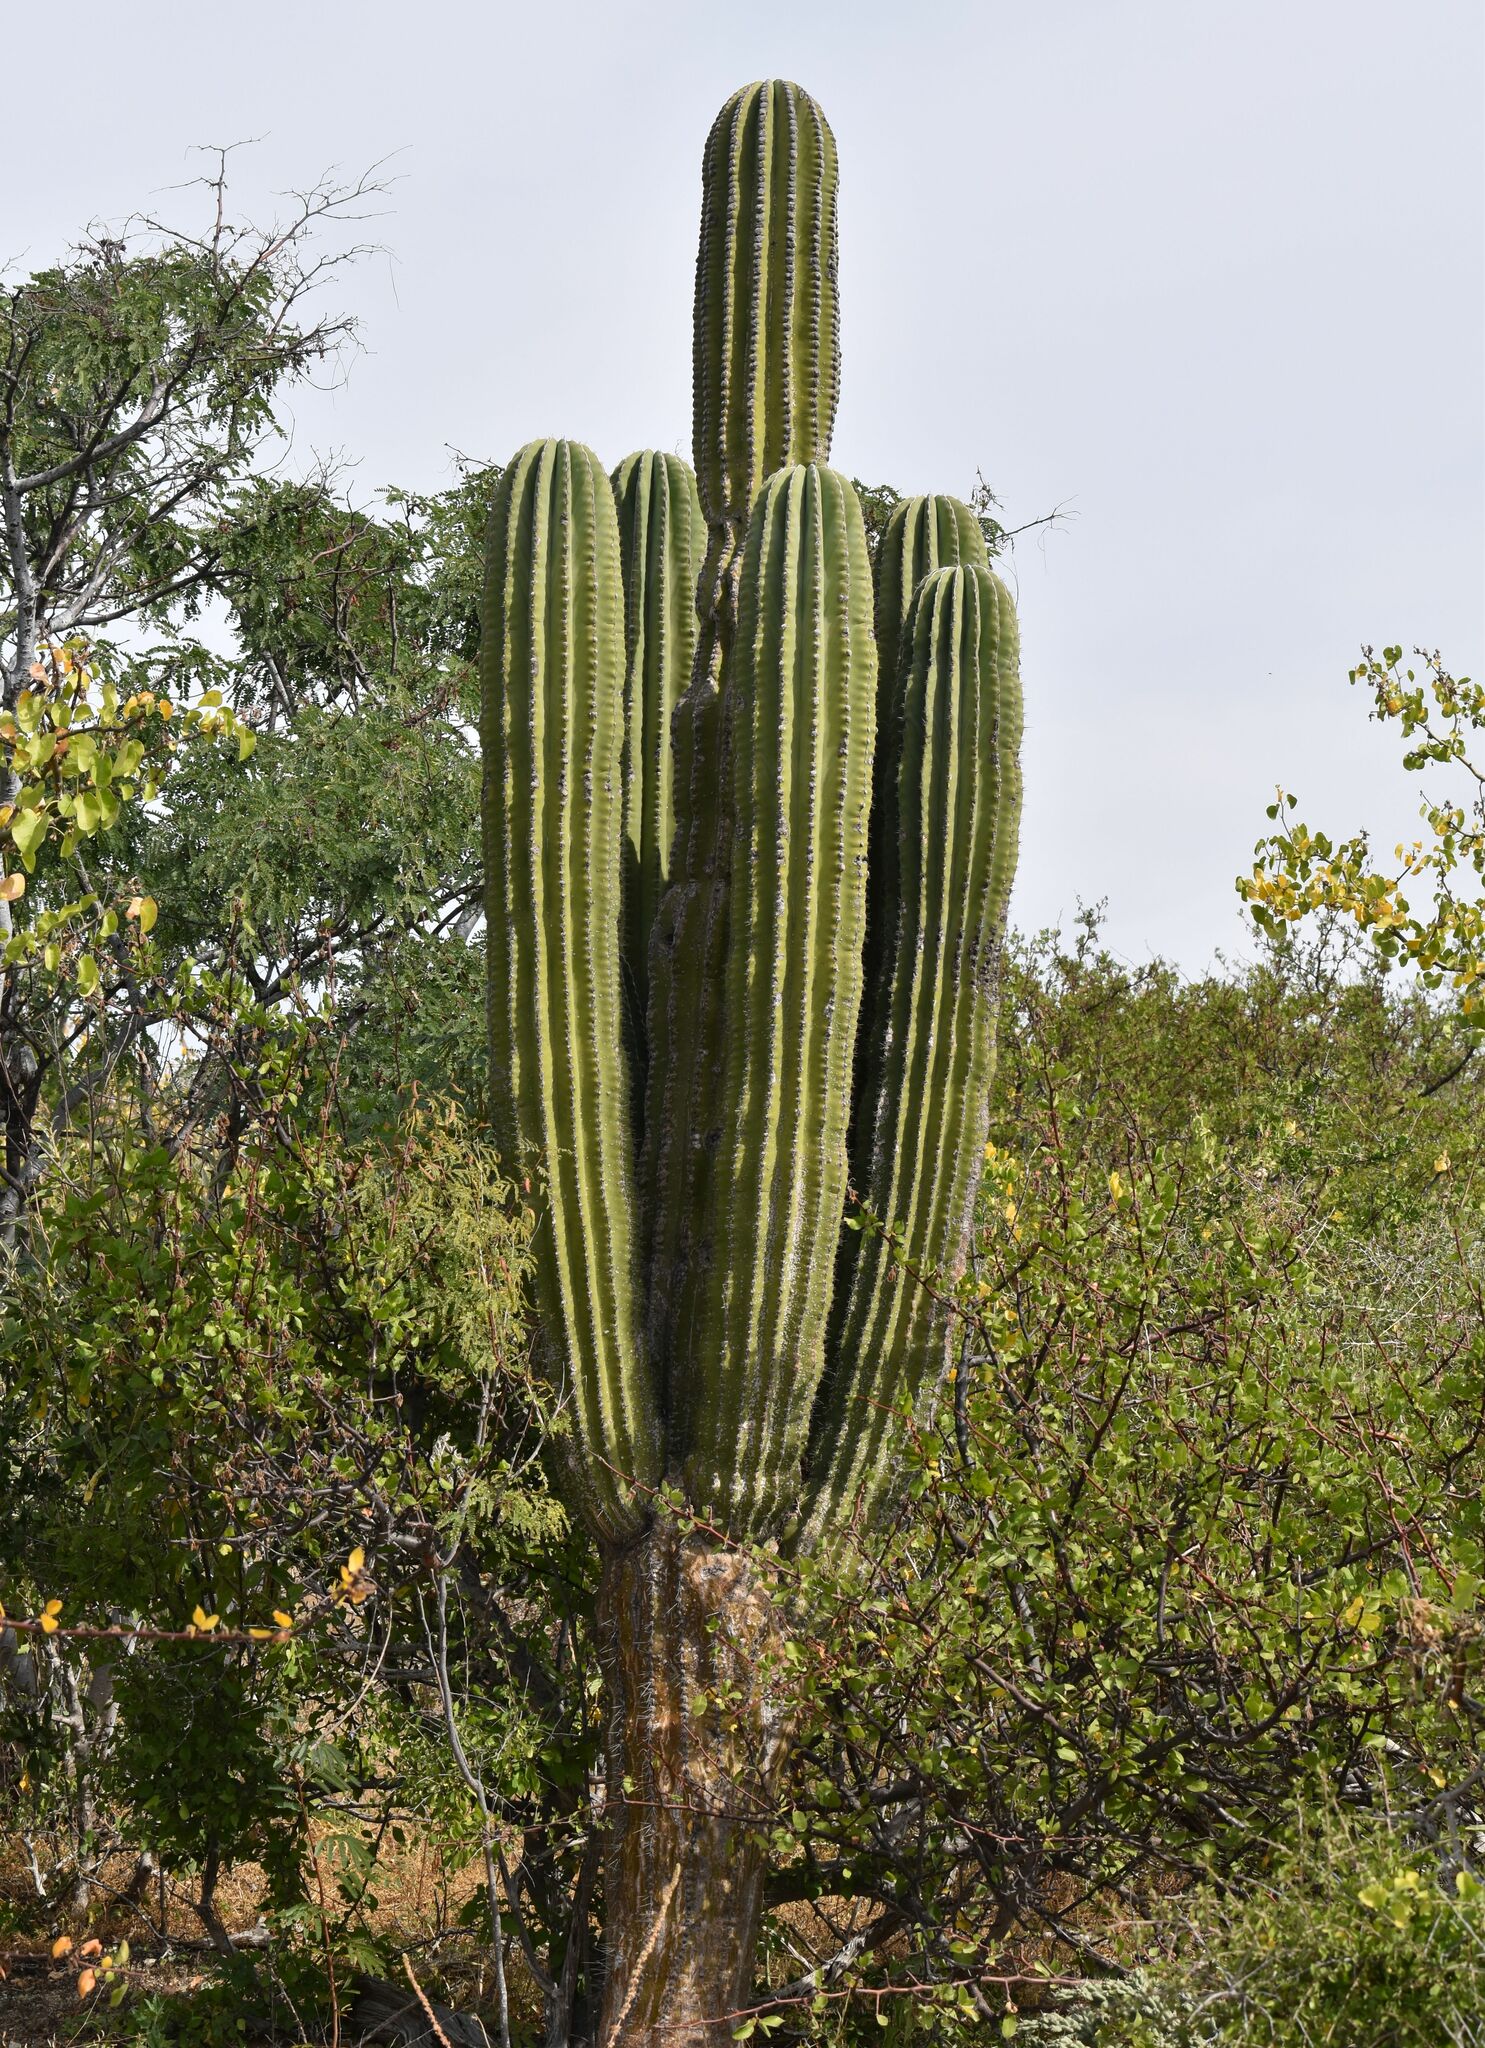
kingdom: Plantae
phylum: Tracheophyta
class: Magnoliopsida
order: Caryophyllales
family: Cactaceae
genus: Pachycereus
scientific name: Pachycereus pringlei
